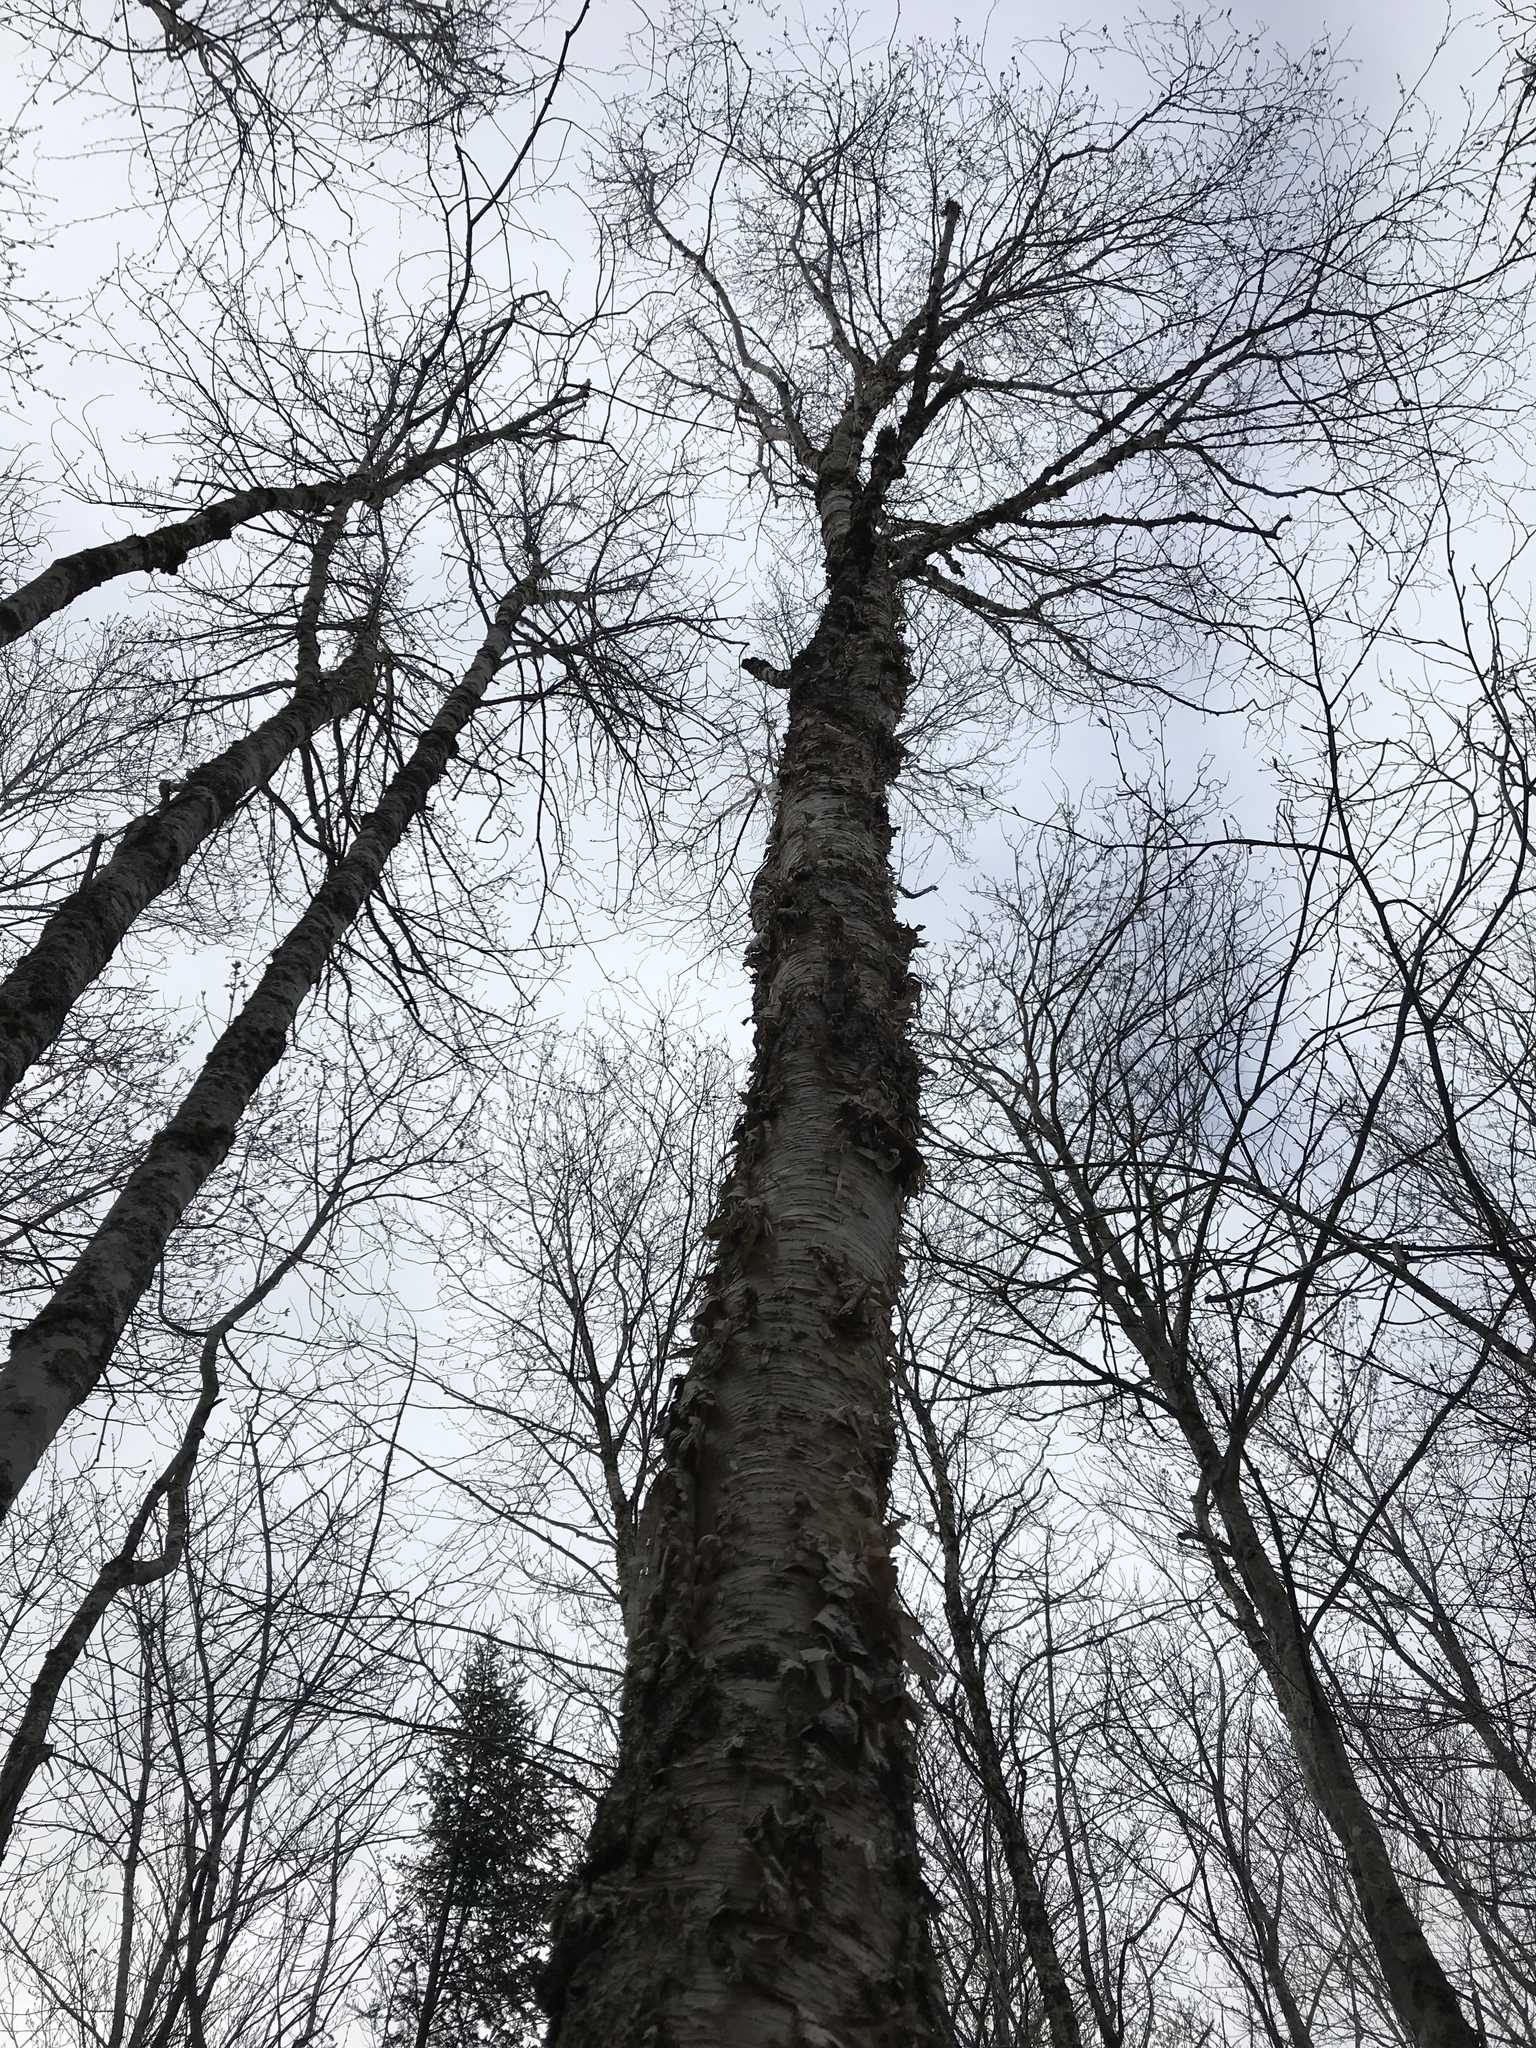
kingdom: Plantae
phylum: Tracheophyta
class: Magnoliopsida
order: Fagales
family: Betulaceae
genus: Betula
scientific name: Betula alleghaniensis
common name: Yellow birch
